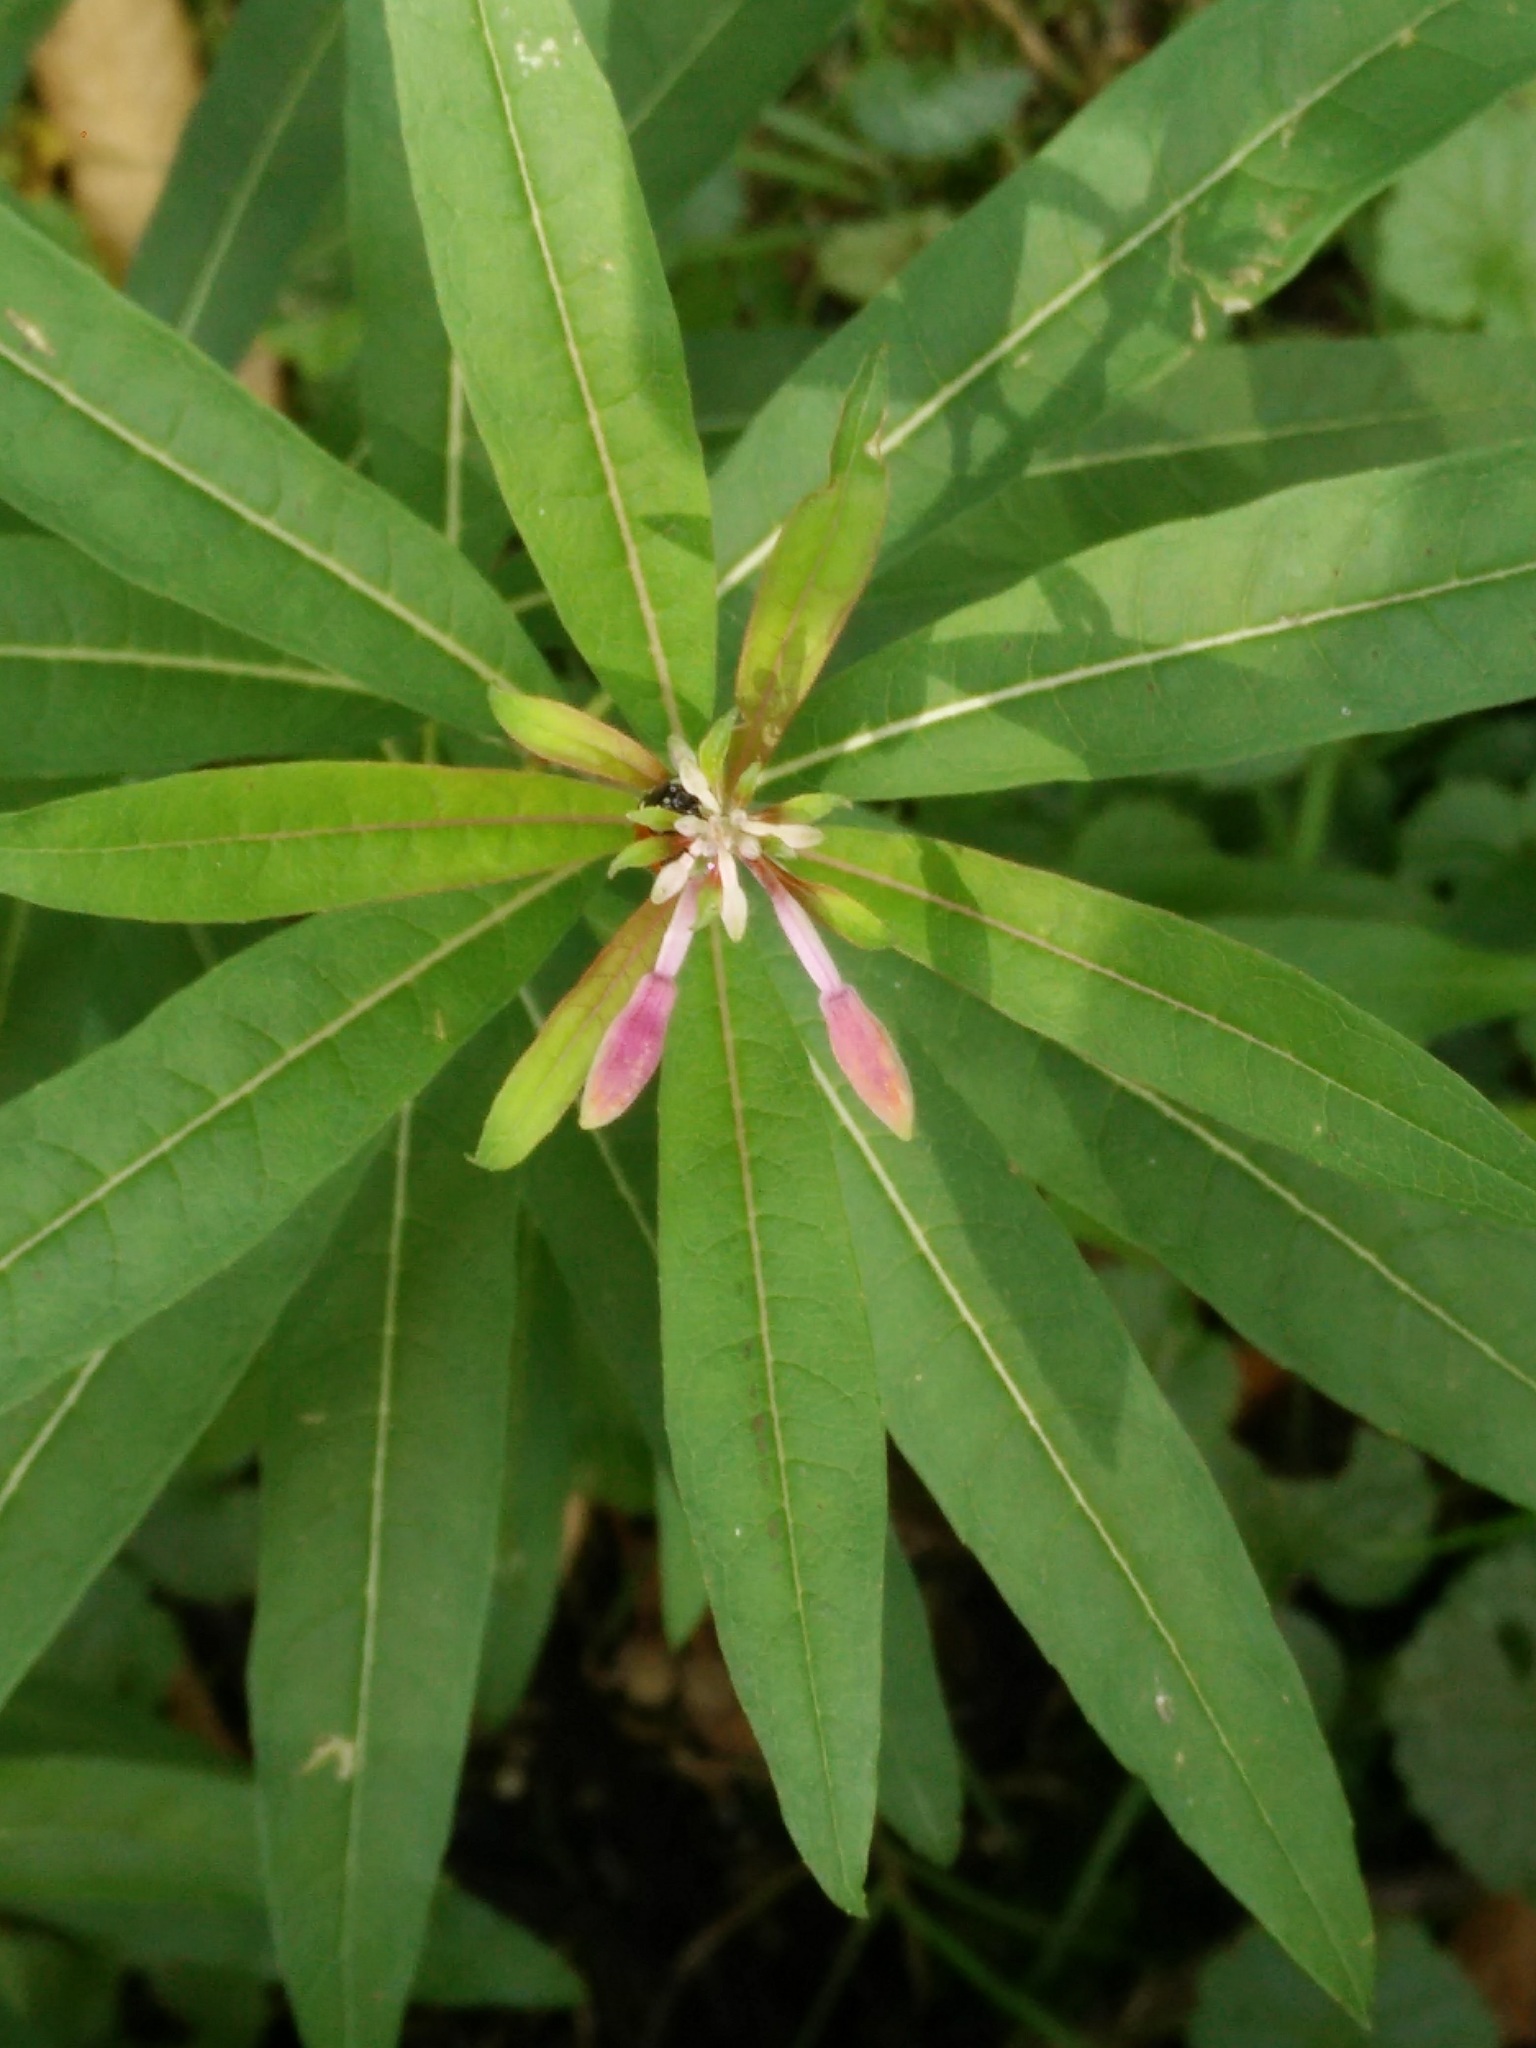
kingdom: Plantae
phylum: Tracheophyta
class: Magnoliopsida
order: Myrtales
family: Onagraceae
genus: Chamaenerion
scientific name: Chamaenerion angustifolium
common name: Fireweed
